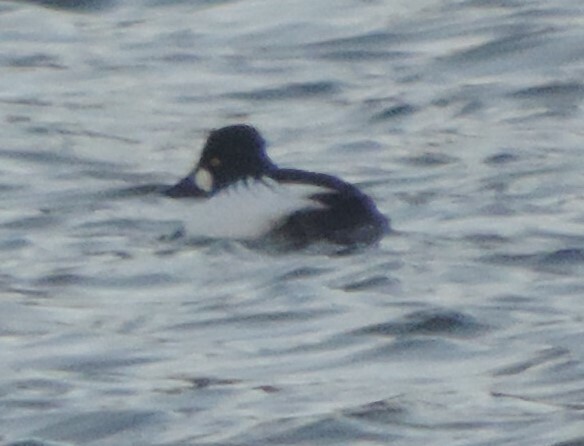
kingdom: Animalia
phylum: Chordata
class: Aves
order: Anseriformes
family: Anatidae
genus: Bucephala
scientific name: Bucephala clangula
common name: Common goldeneye
